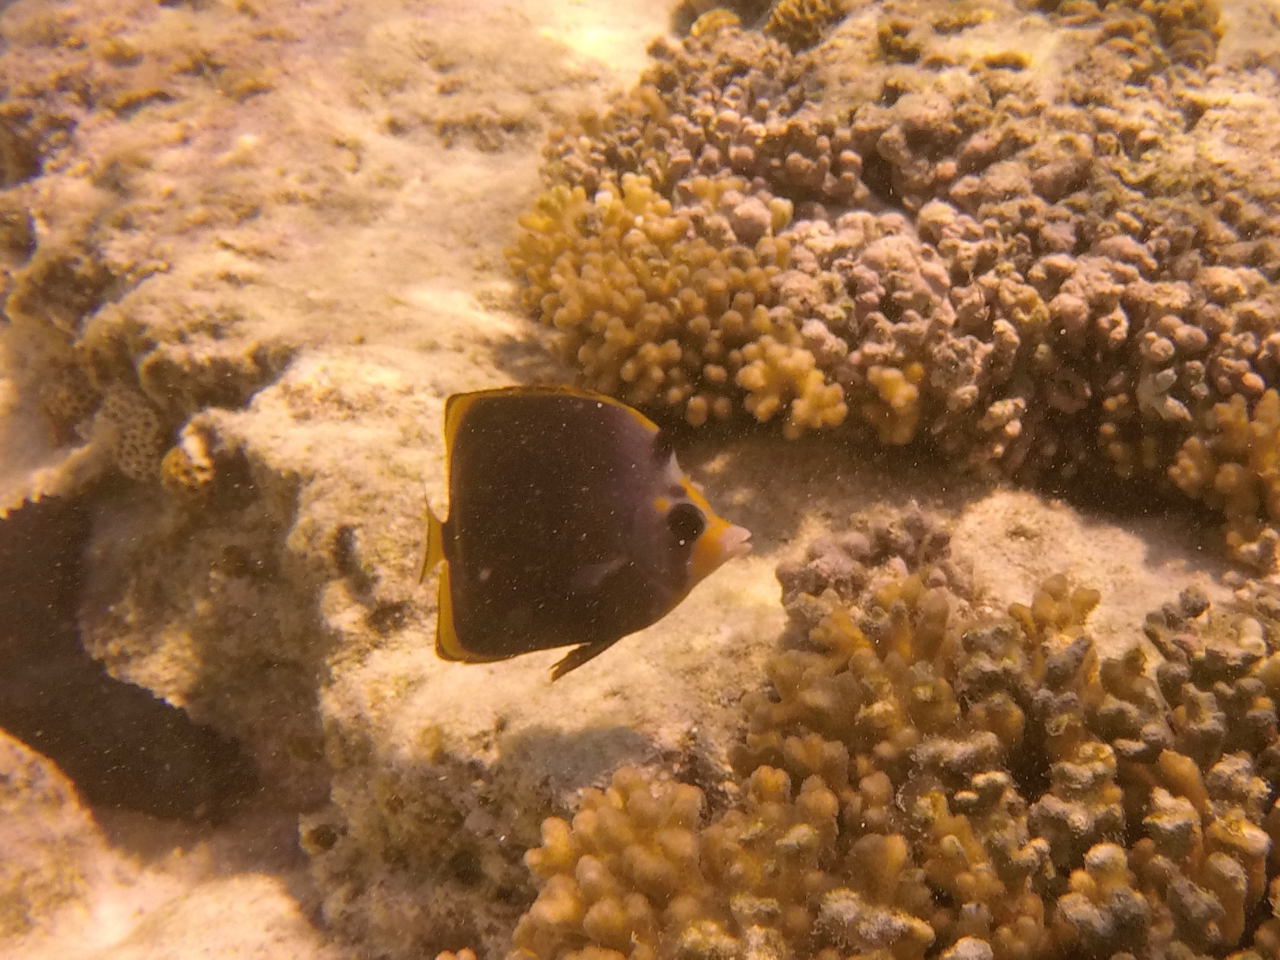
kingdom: Animalia
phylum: Chordata
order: Perciformes
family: Chaetodontidae
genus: Chaetodon
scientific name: Chaetodon flavirostris
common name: Black butterflyfish
